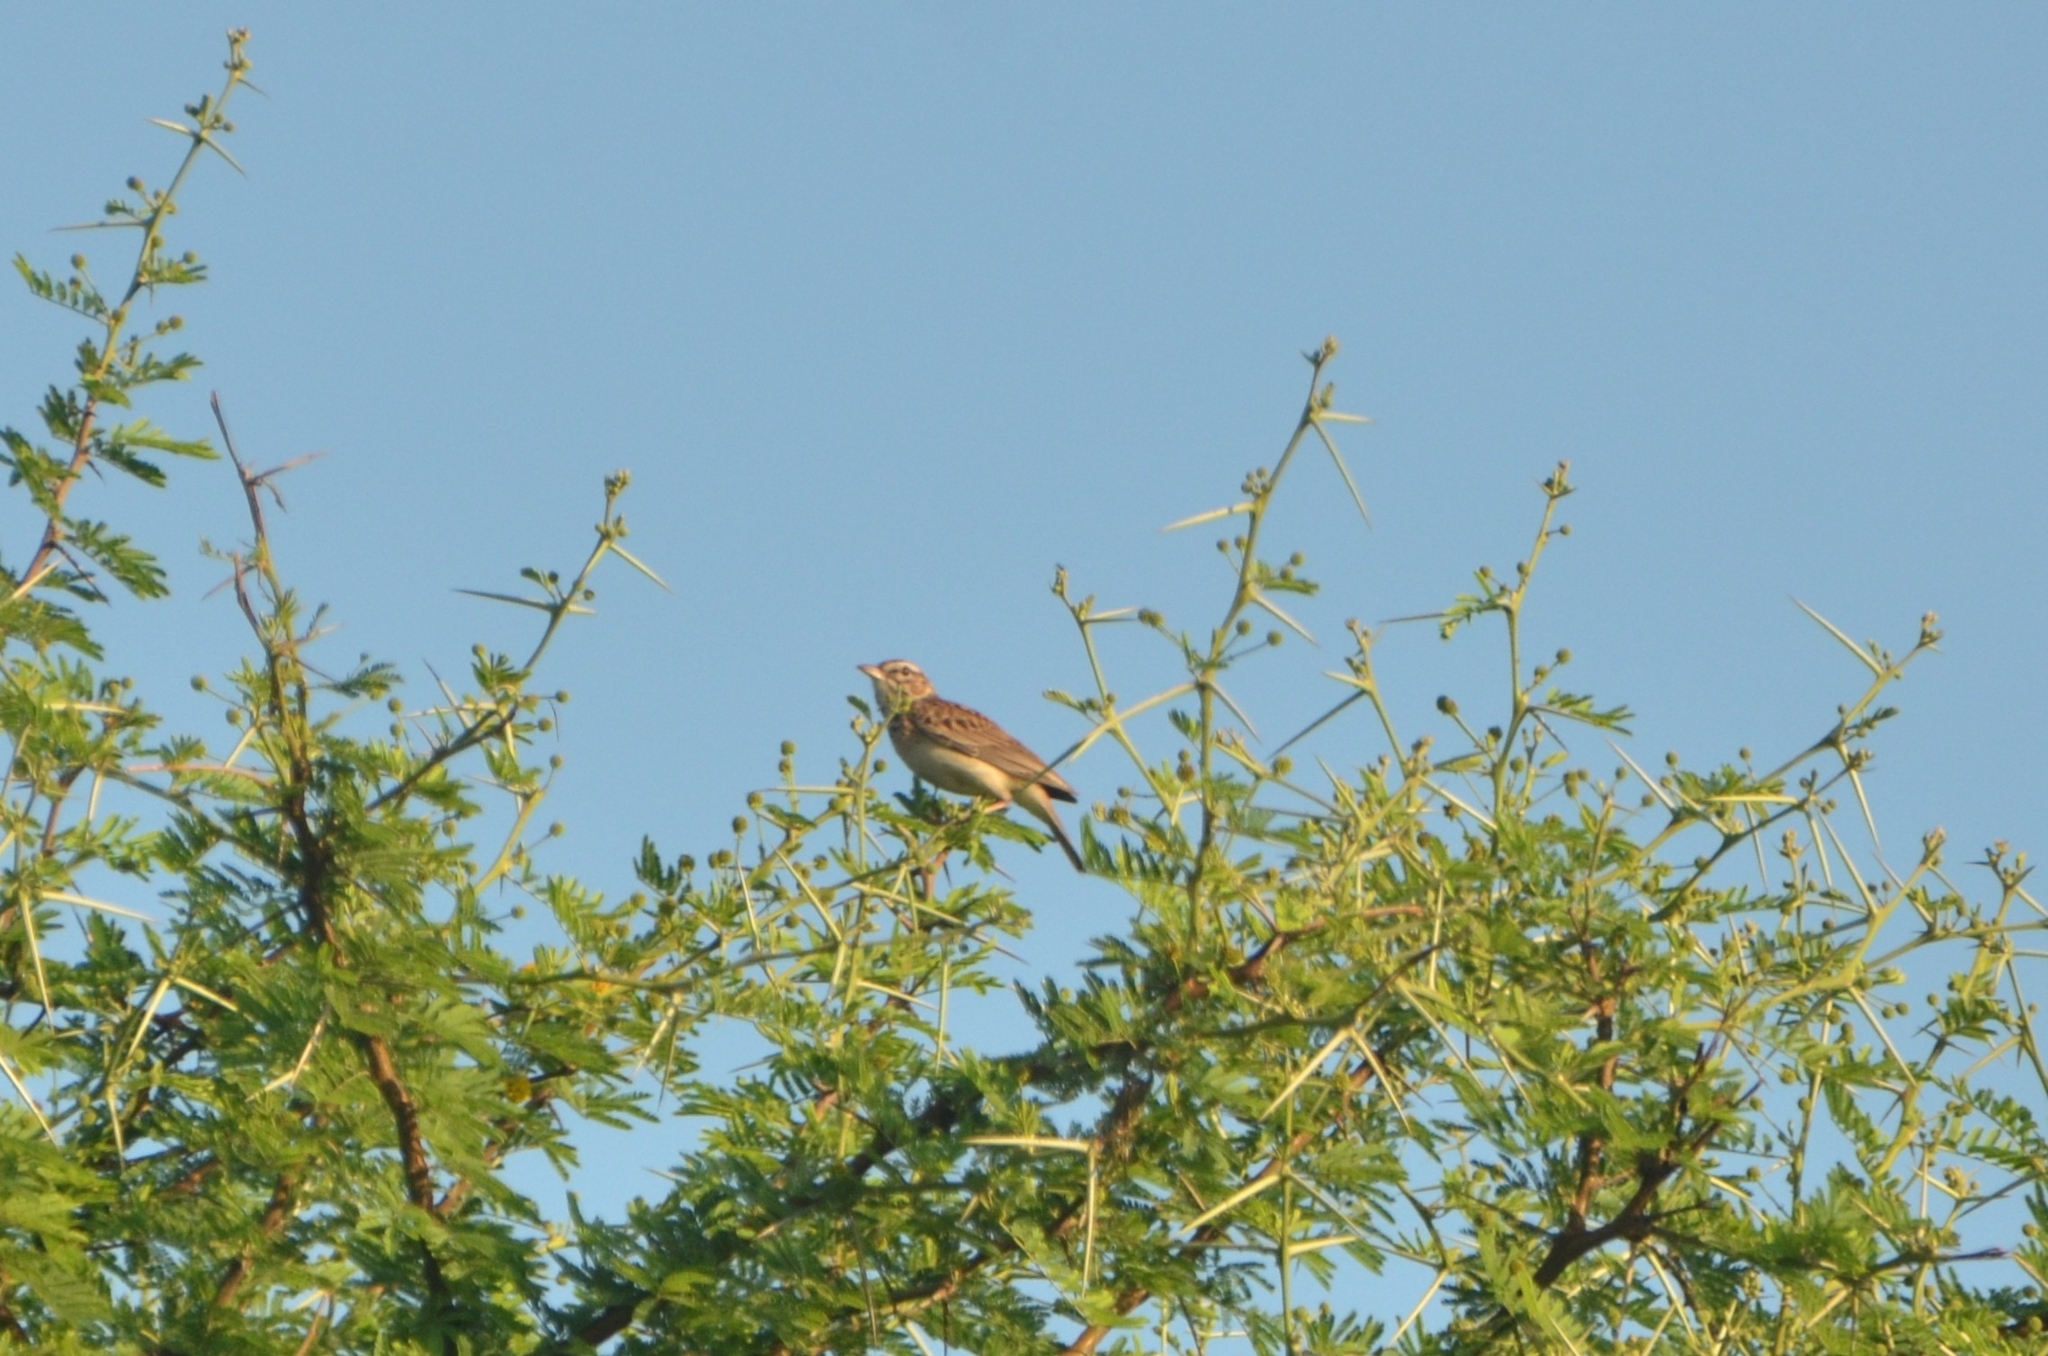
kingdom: Animalia
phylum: Chordata
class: Aves
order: Passeriformes
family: Alaudidae
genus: Calendulauda
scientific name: Calendulauda sabota
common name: Sabota lark
